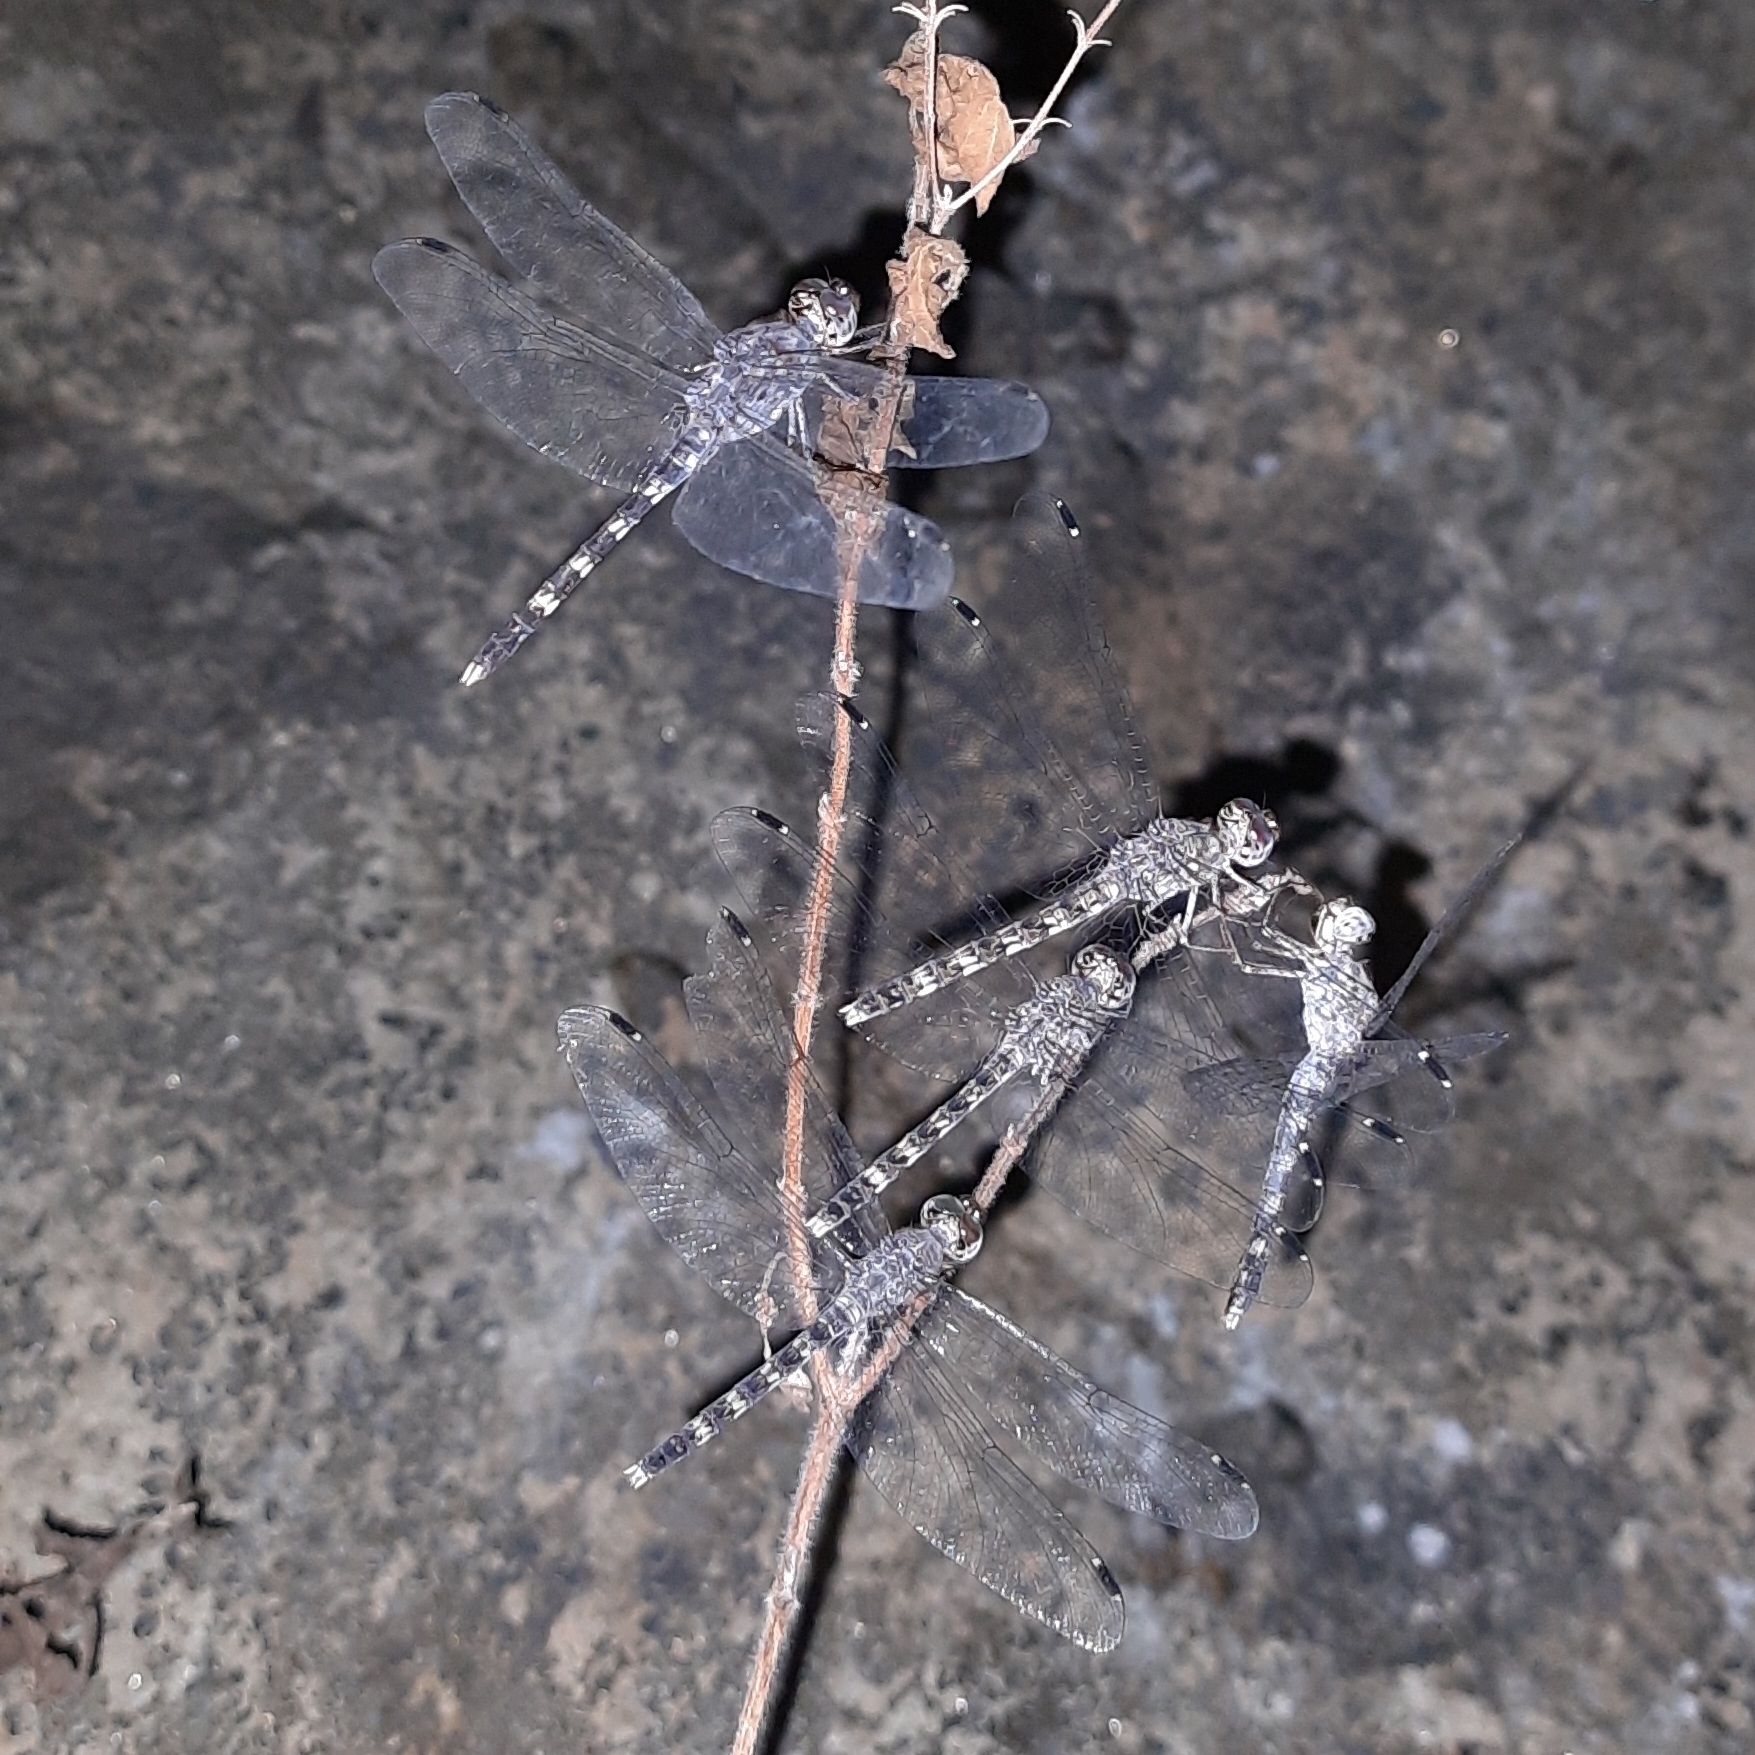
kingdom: Animalia
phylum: Arthropoda
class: Insecta
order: Odonata
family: Libellulidae
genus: Bradinopyga
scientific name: Bradinopyga geminata
